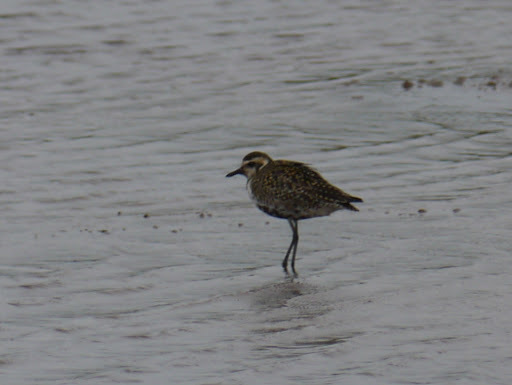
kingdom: Animalia
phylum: Chordata
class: Aves
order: Charadriiformes
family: Charadriidae
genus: Pluvialis
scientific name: Pluvialis fulva
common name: Pacific golden plover
